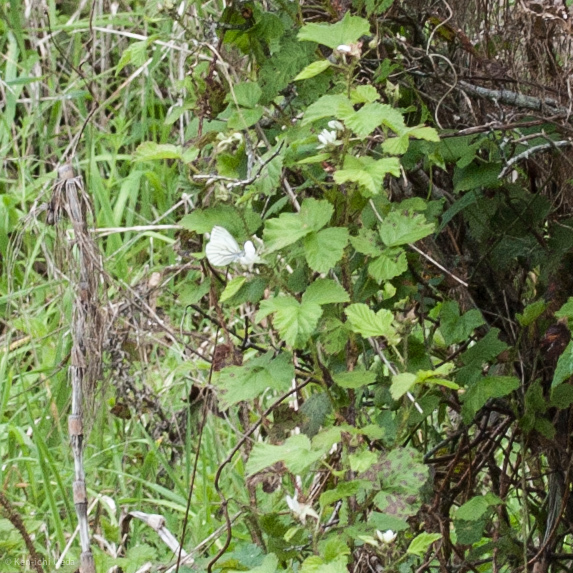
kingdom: Animalia
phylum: Arthropoda
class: Insecta
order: Lepidoptera
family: Pieridae
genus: Pieris
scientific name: Pieris marginalis
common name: Margined white
